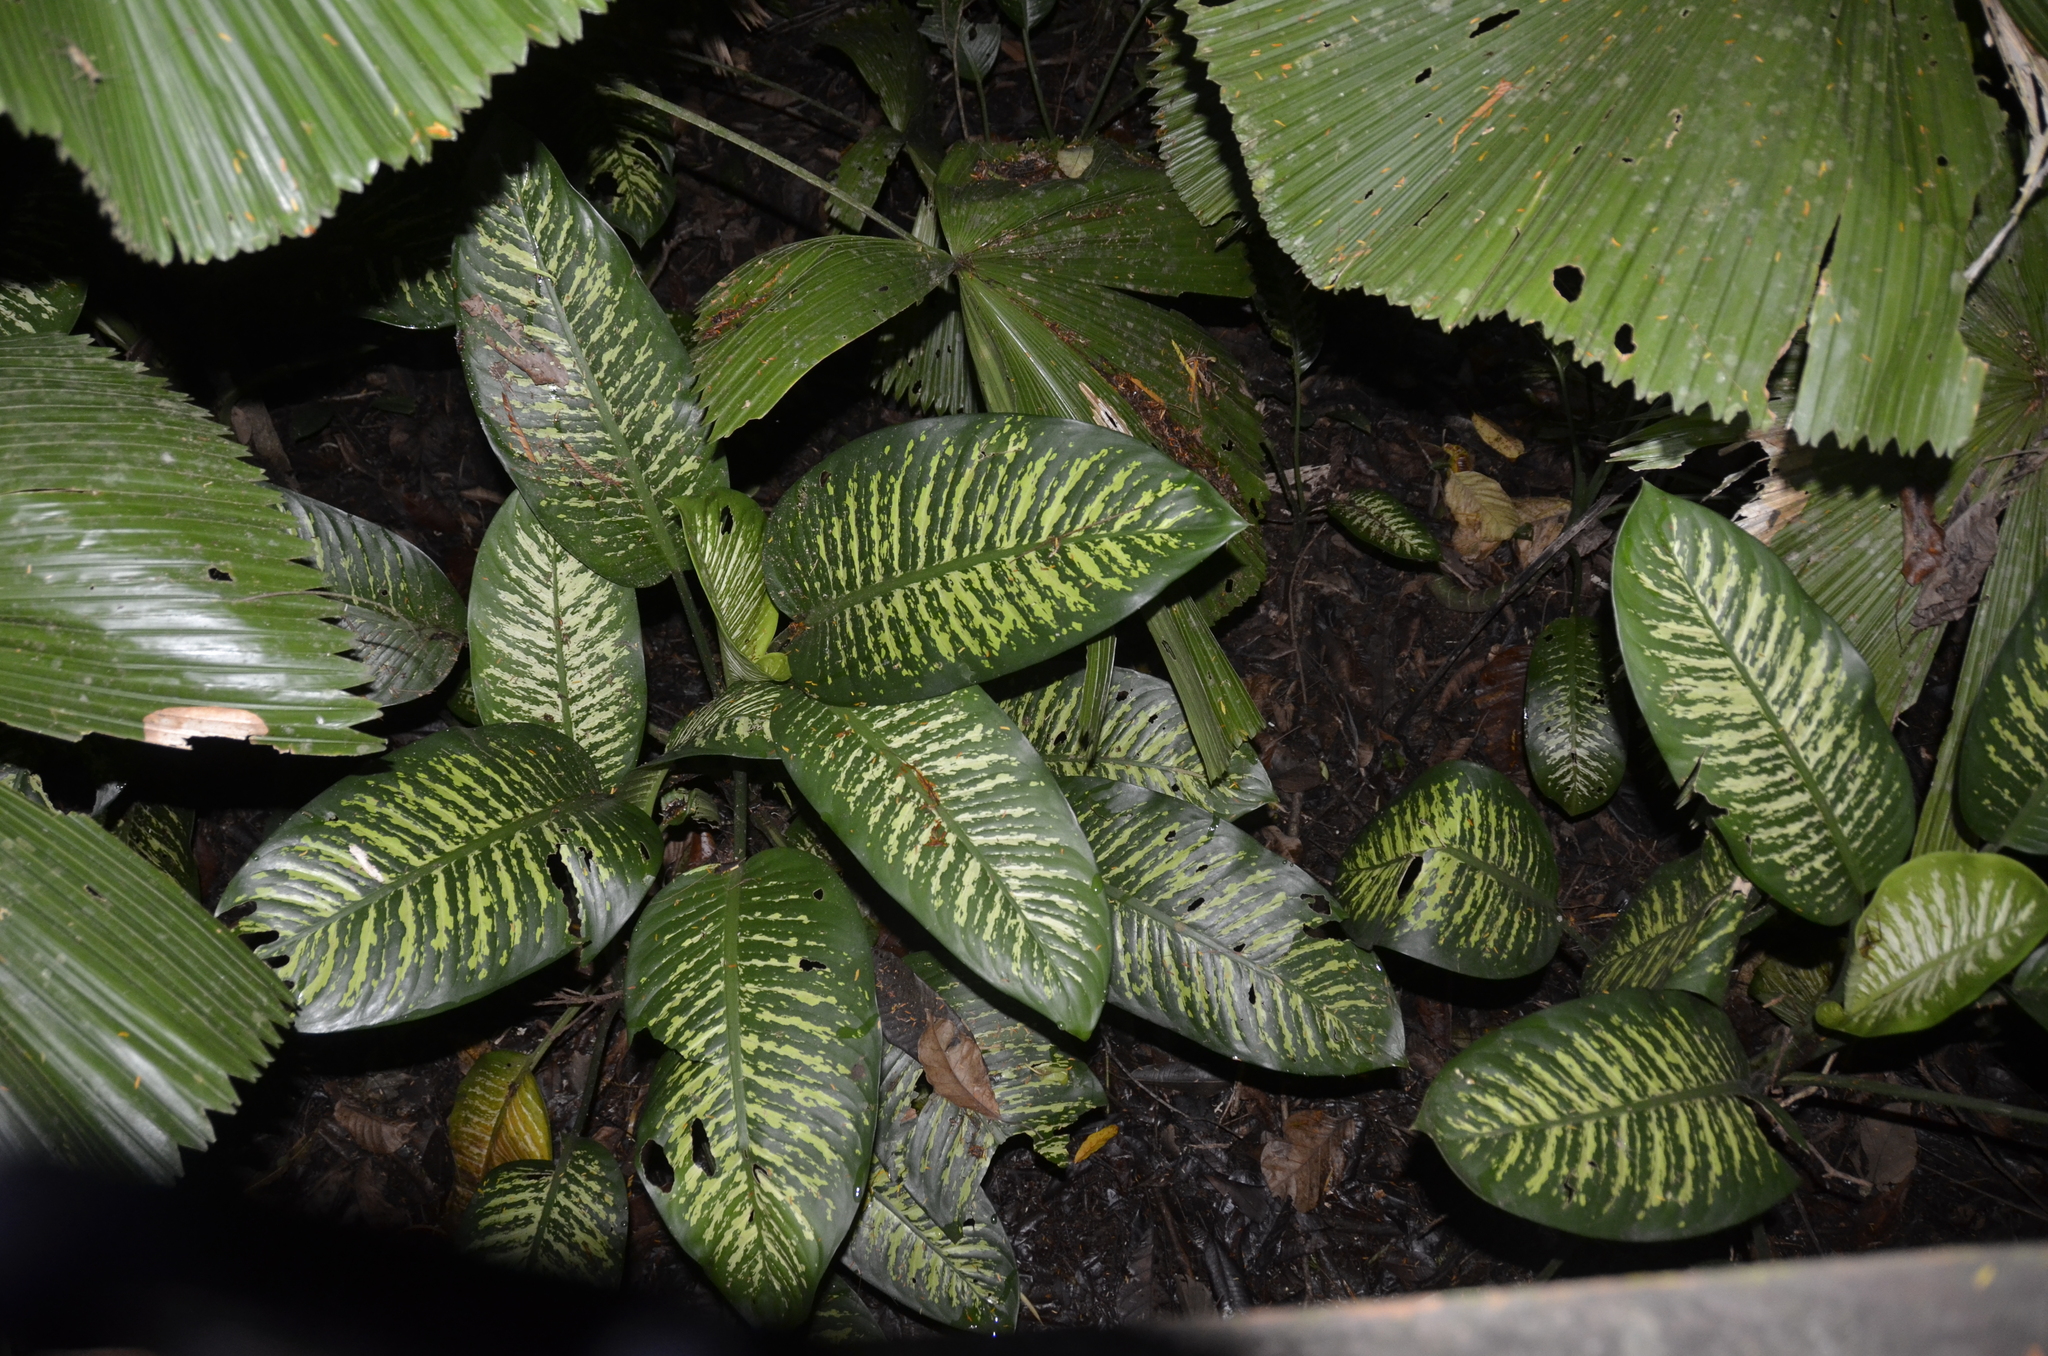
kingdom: Plantae
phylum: Tracheophyta
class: Liliopsida
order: Alismatales
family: Araceae
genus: Dieffenbachia
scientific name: Dieffenbachia seguine
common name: Dumbcane
